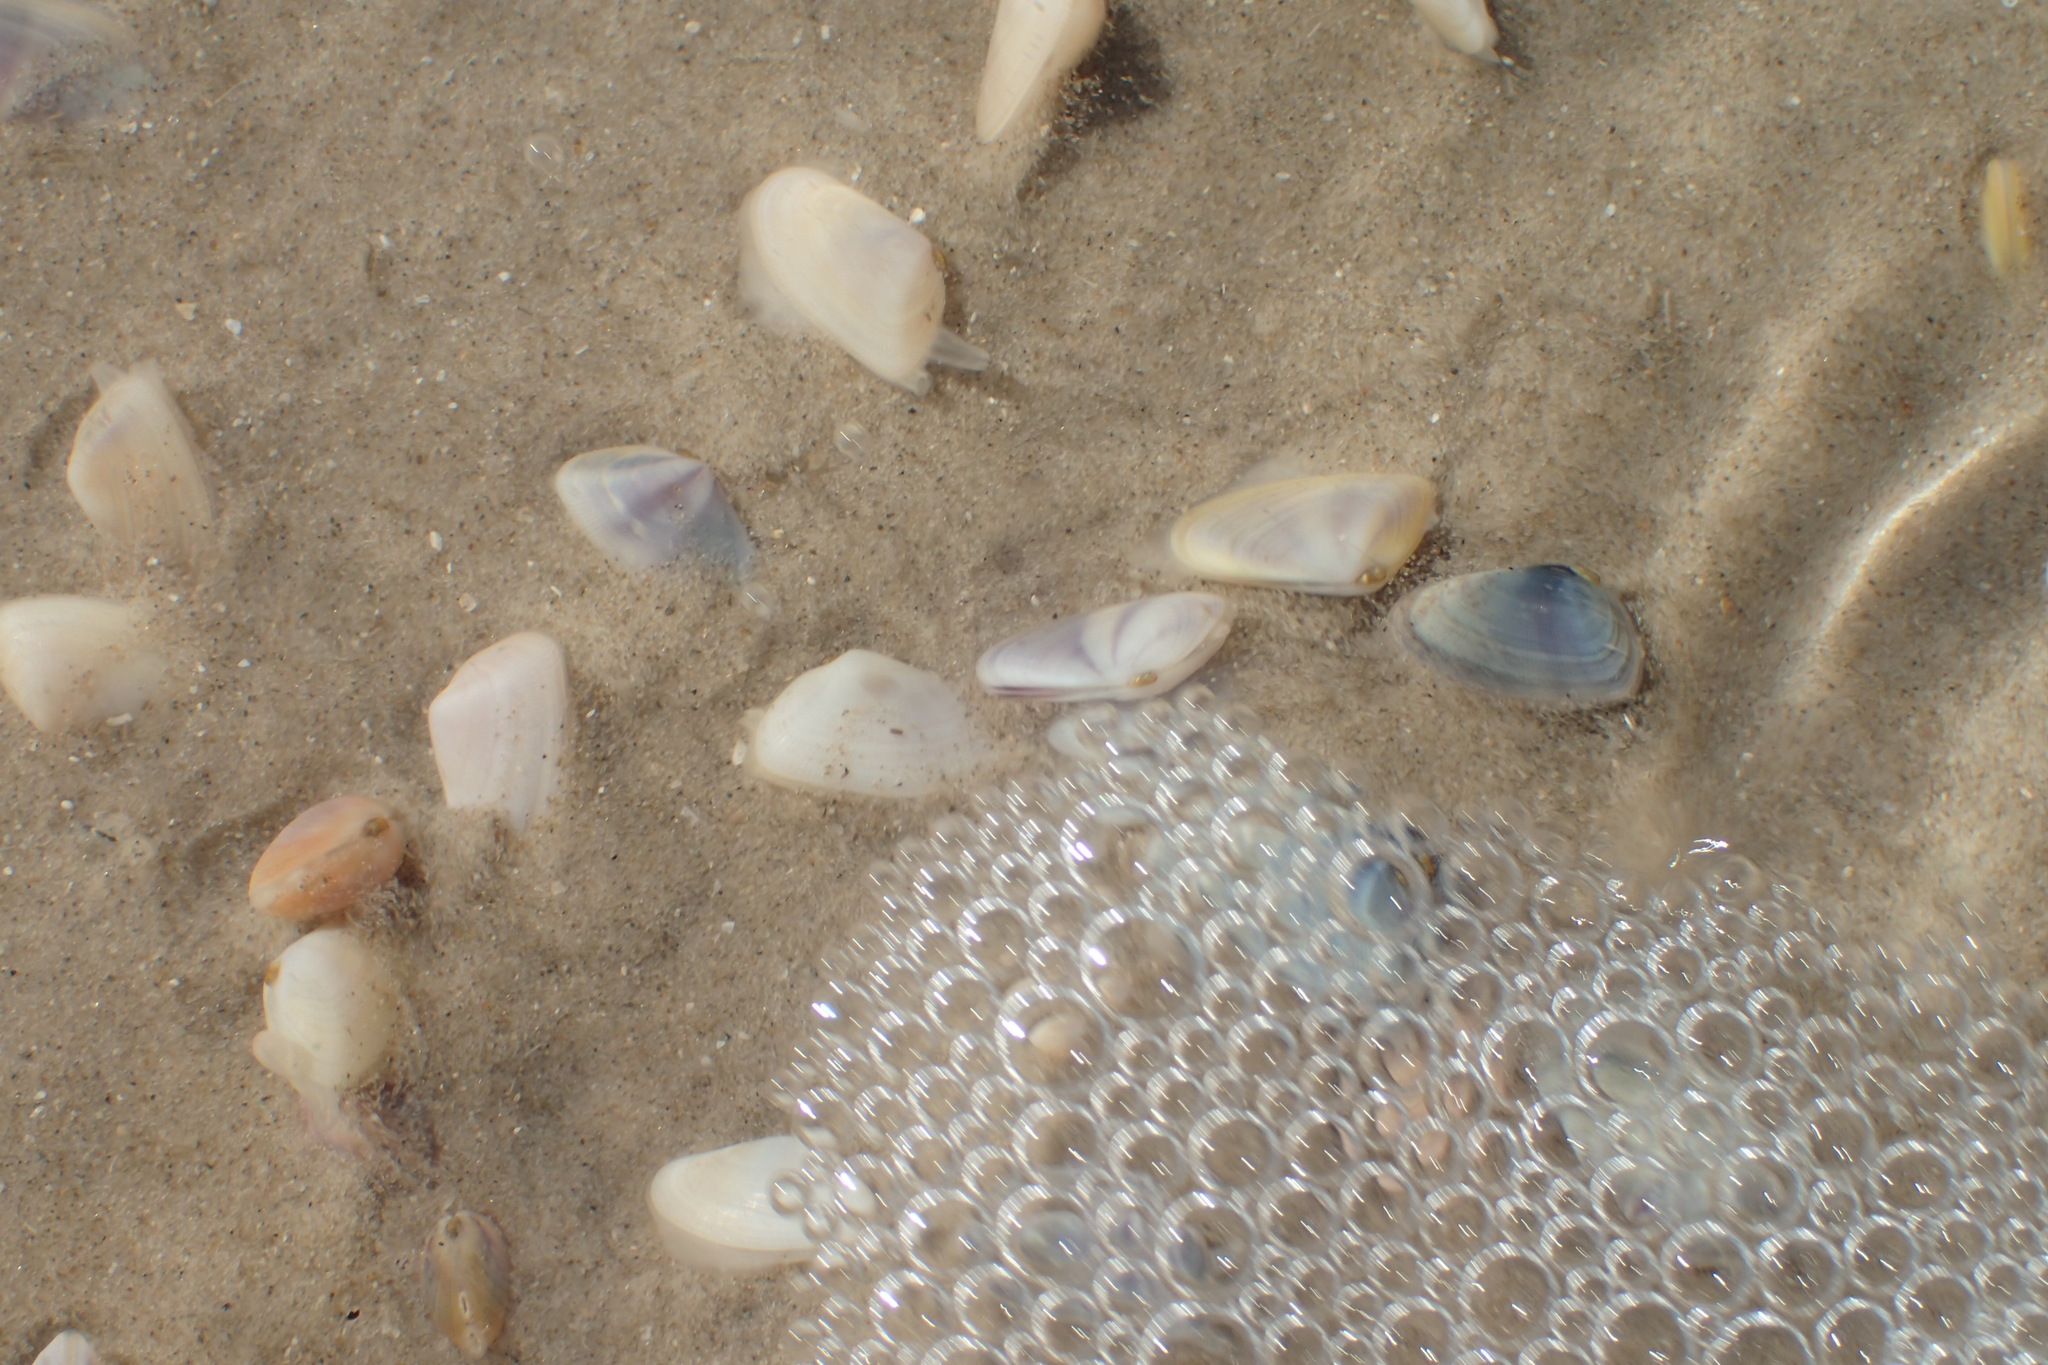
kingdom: Animalia
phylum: Mollusca
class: Bivalvia
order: Cardiida
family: Donacidae
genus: Donax
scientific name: Donax variabilis
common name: Butterfly shell
